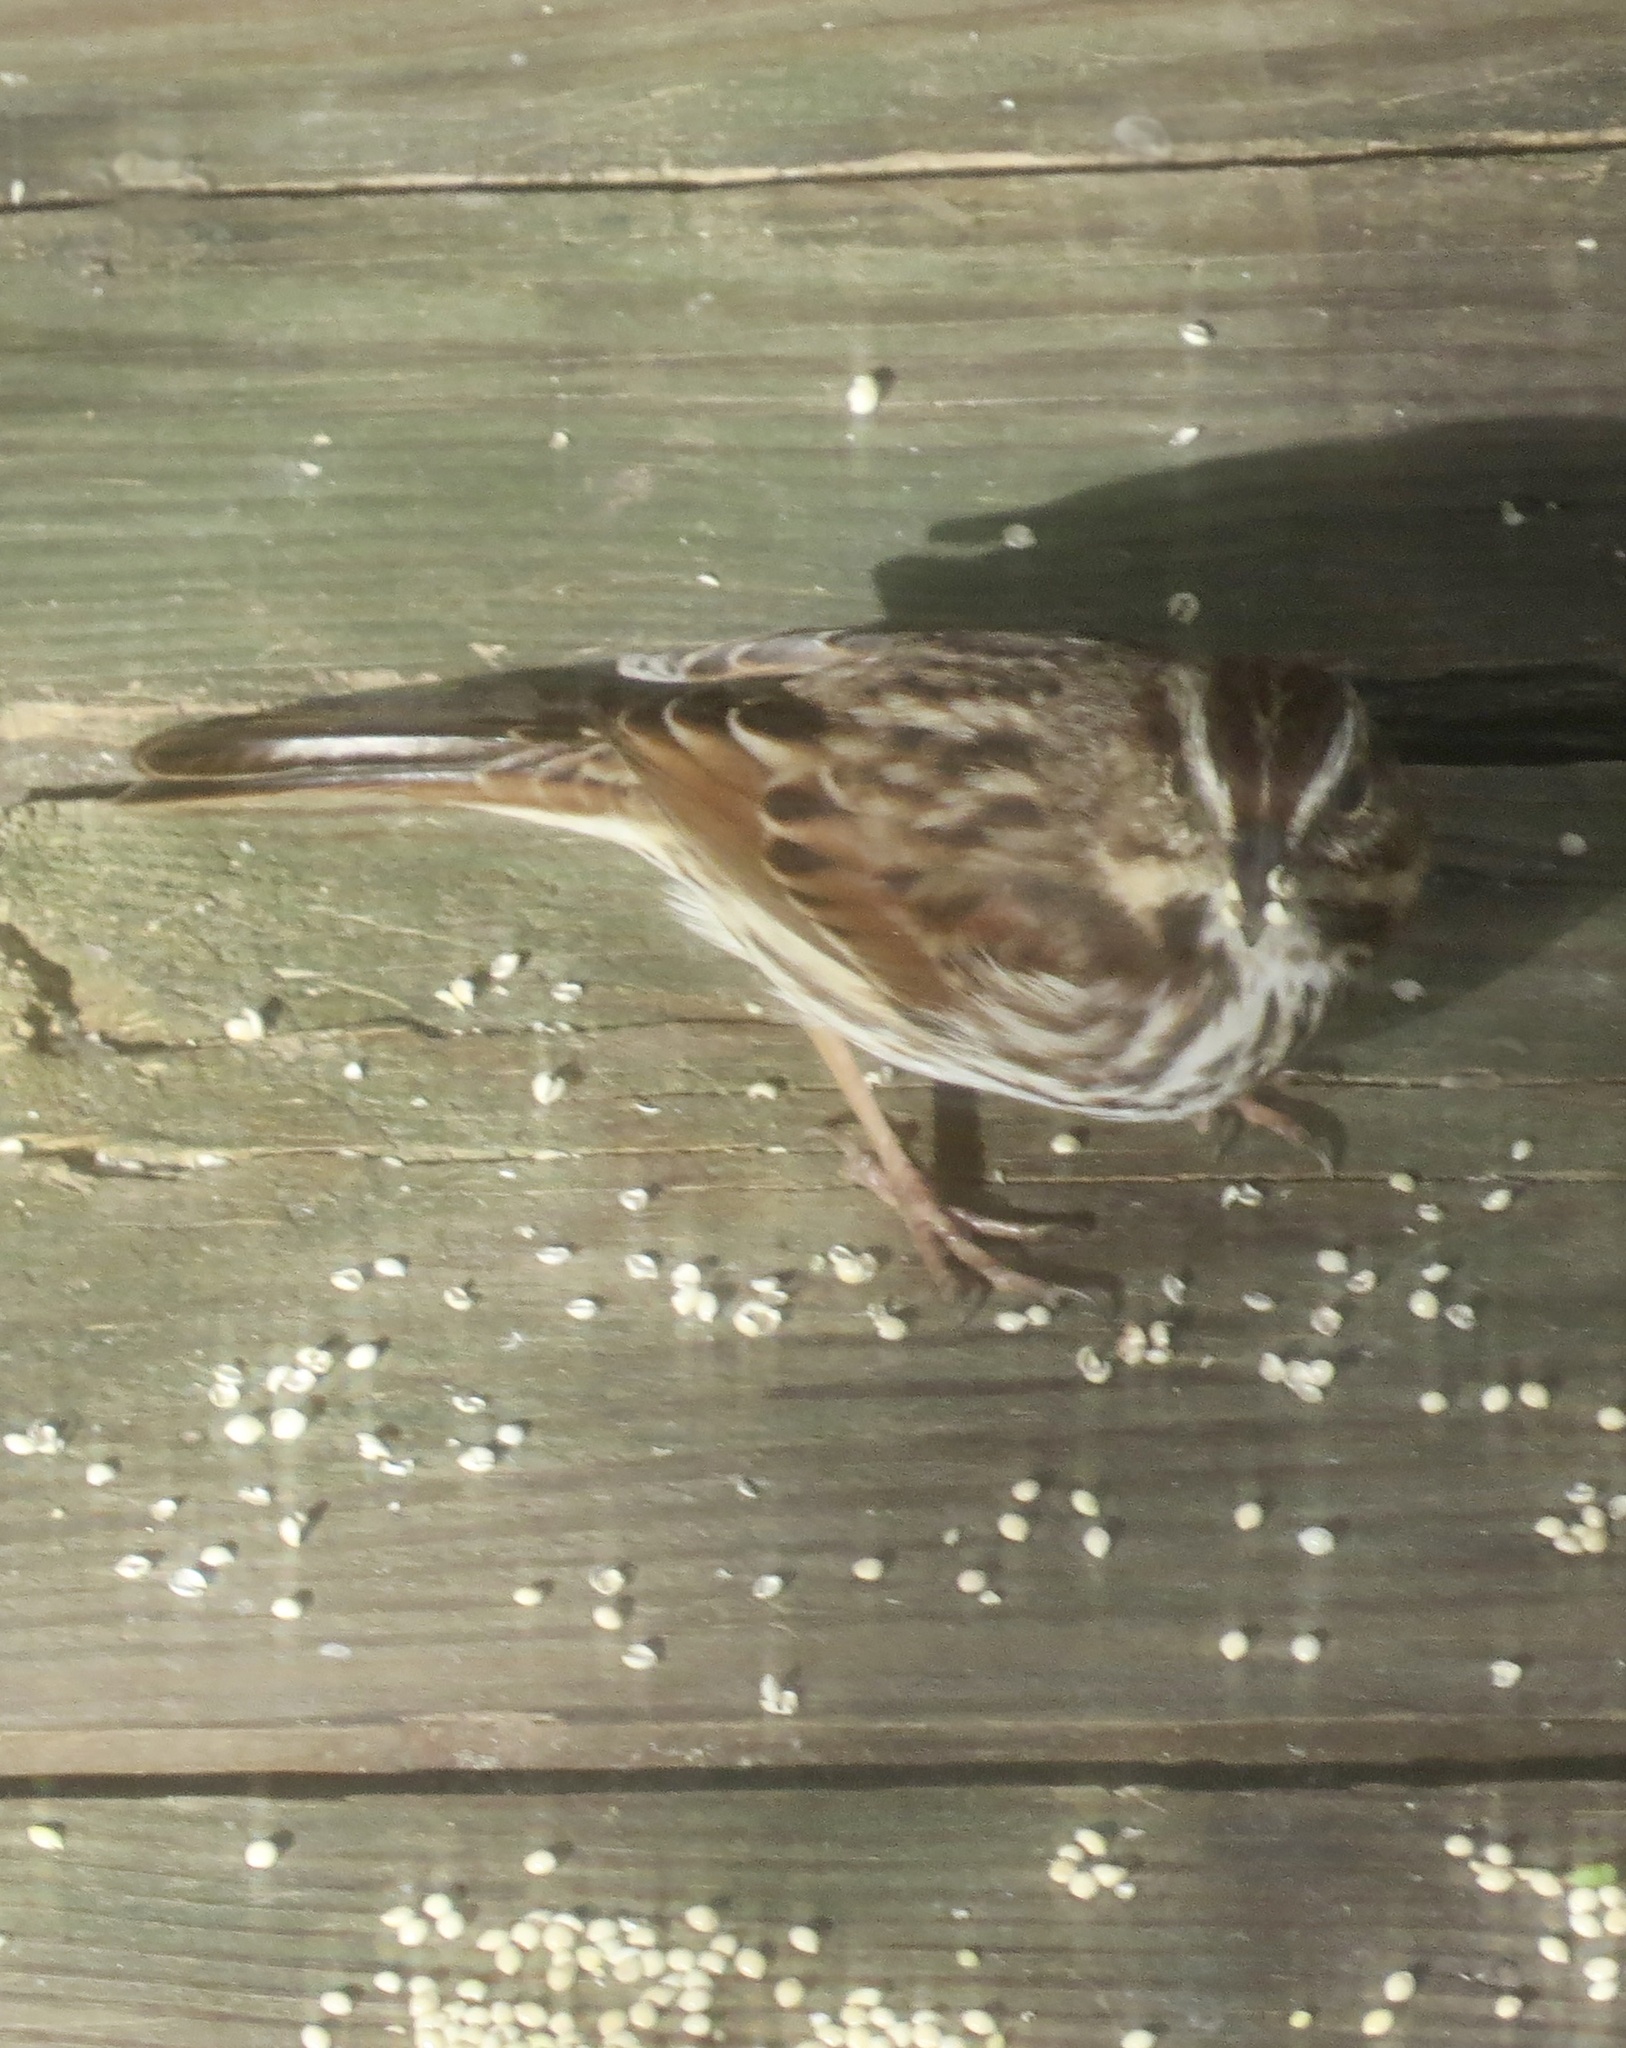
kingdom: Animalia
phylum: Chordata
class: Aves
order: Passeriformes
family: Passerellidae
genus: Melospiza
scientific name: Melospiza melodia
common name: Song sparrow
